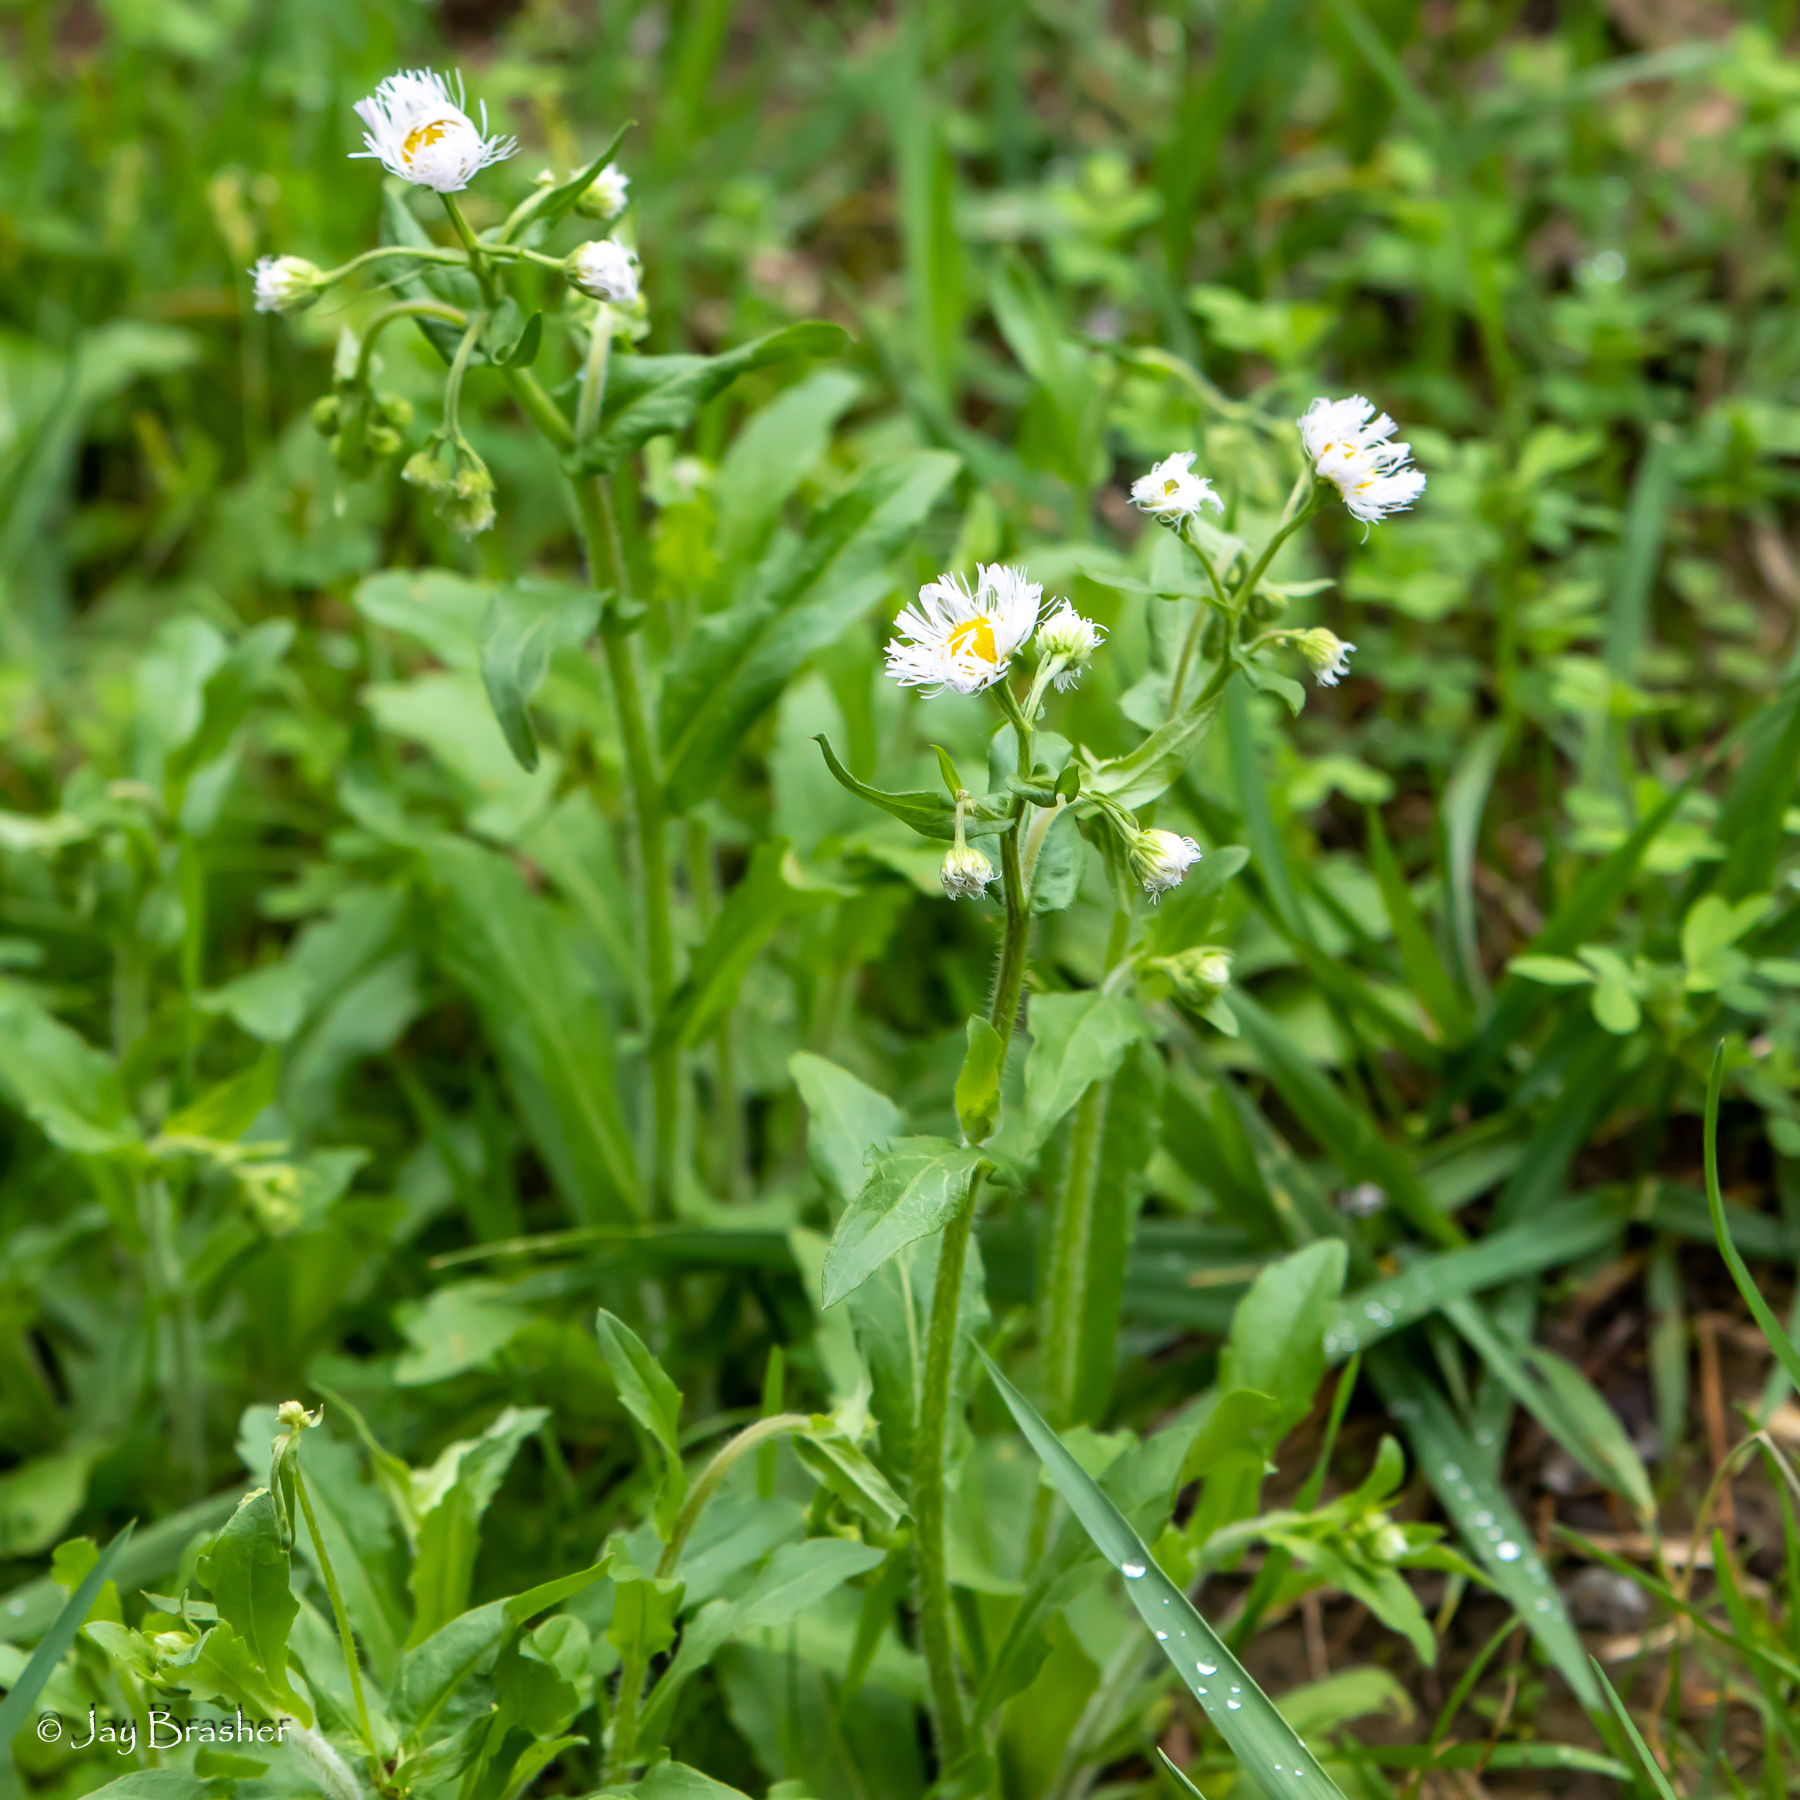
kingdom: Plantae
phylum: Tracheophyta
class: Magnoliopsida
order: Asterales
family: Asteraceae
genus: Erigeron
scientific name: Erigeron philadelphicus
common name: Robin's-plantain
